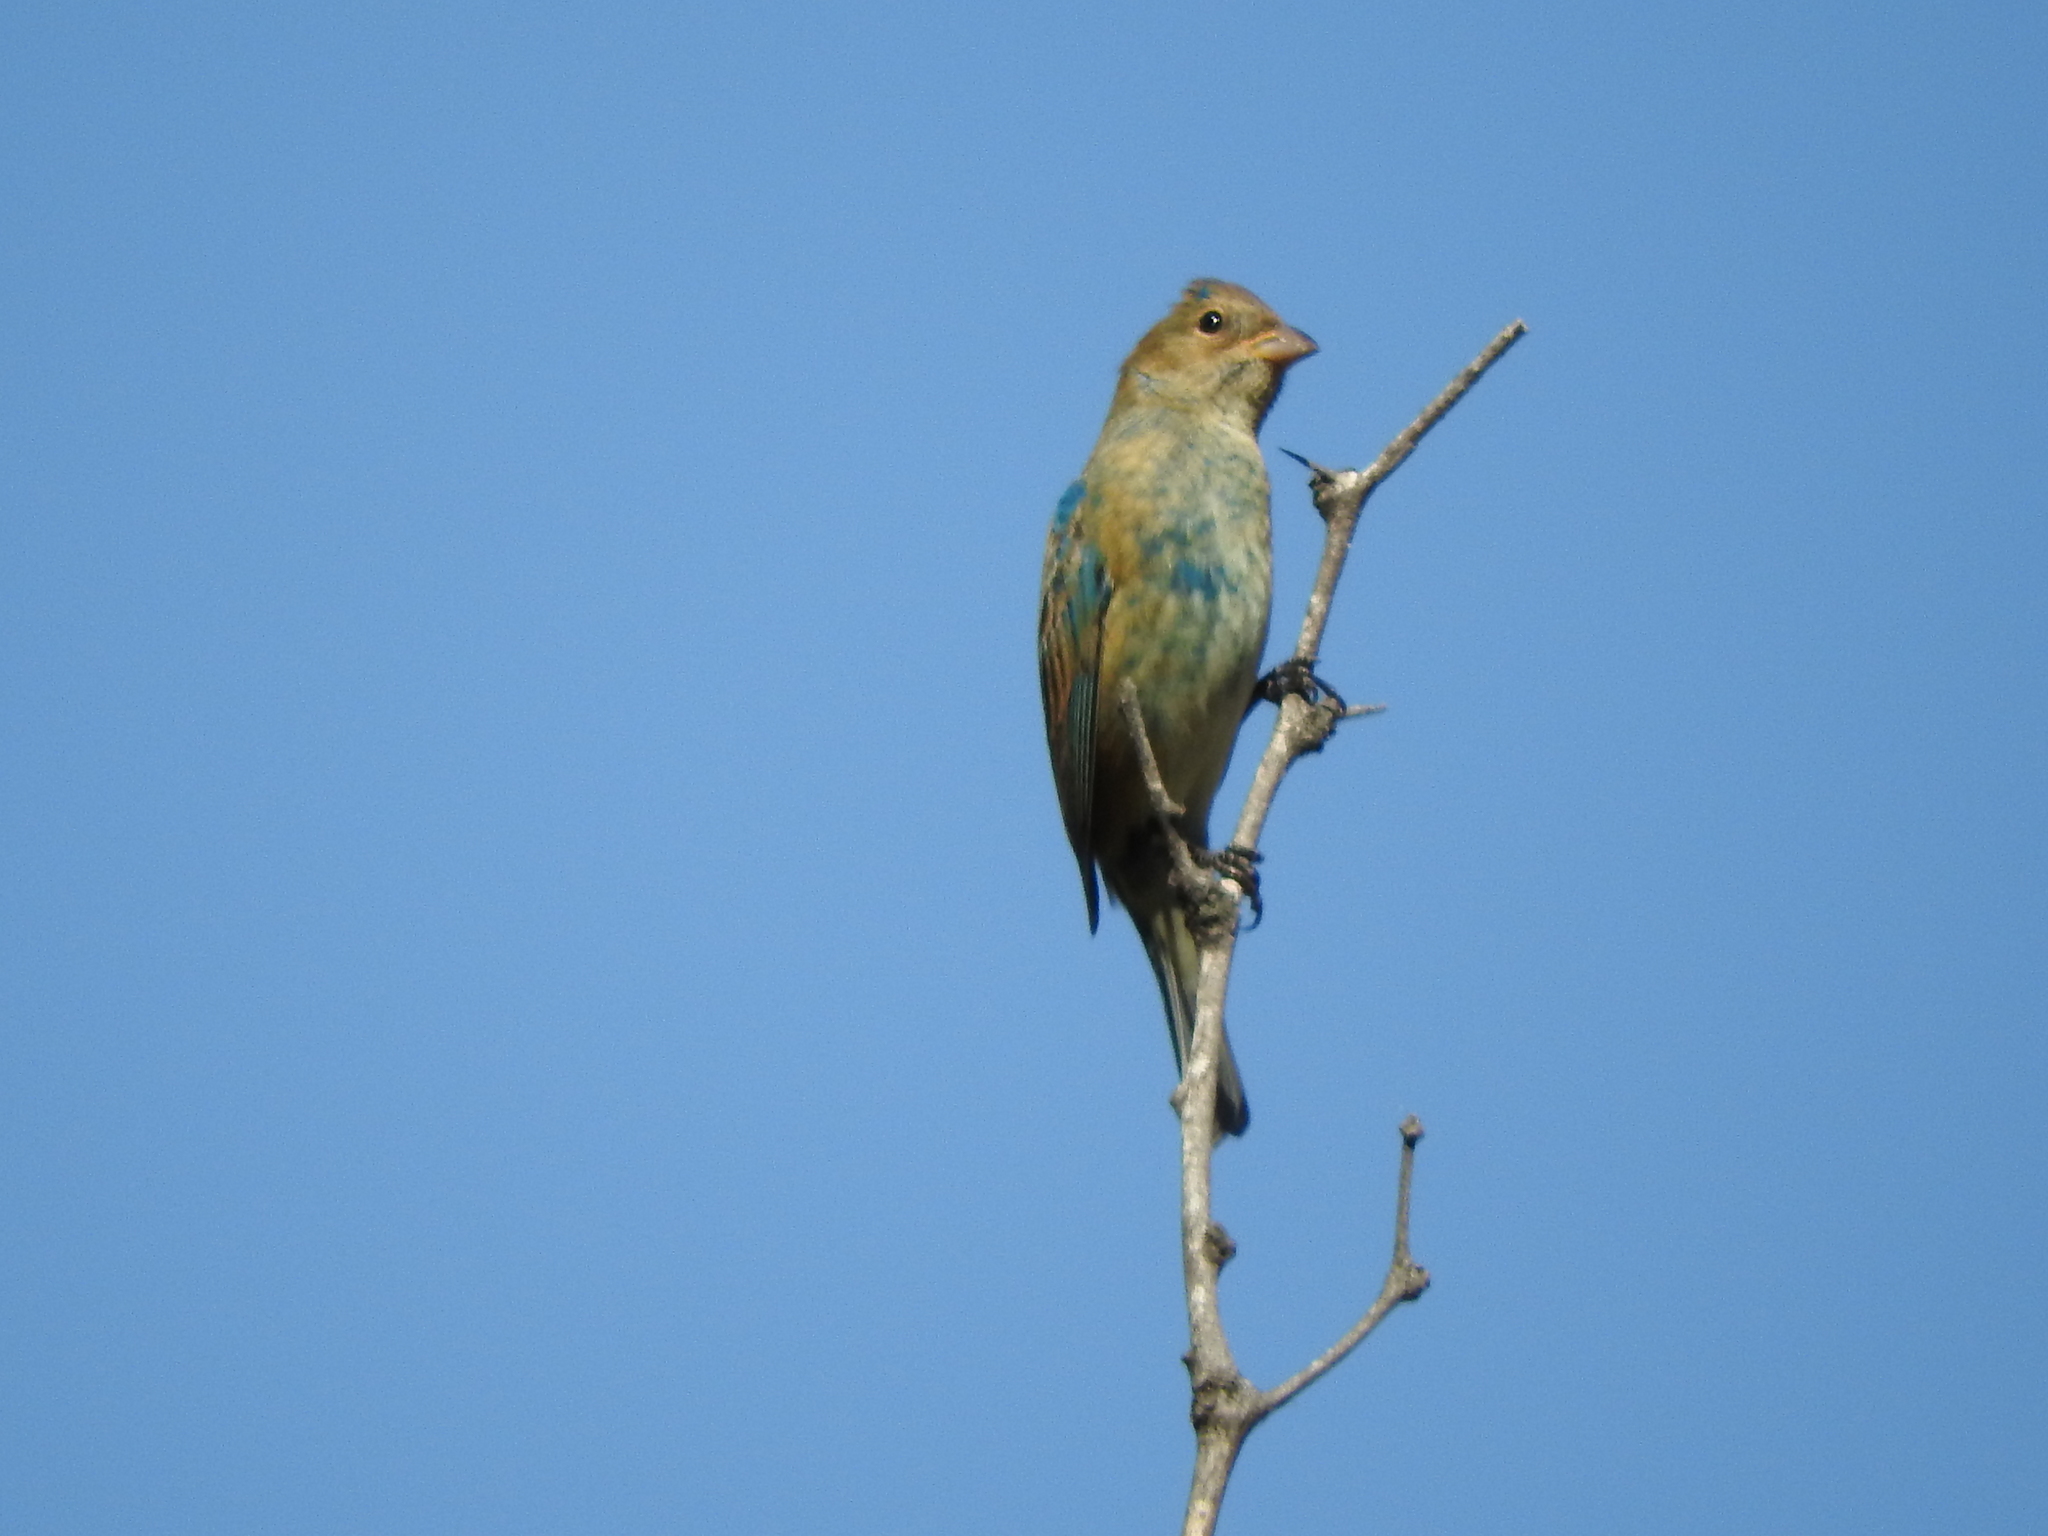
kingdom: Animalia
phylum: Chordata
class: Aves
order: Passeriformes
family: Cardinalidae
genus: Passerina
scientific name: Passerina cyanea
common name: Indigo bunting
